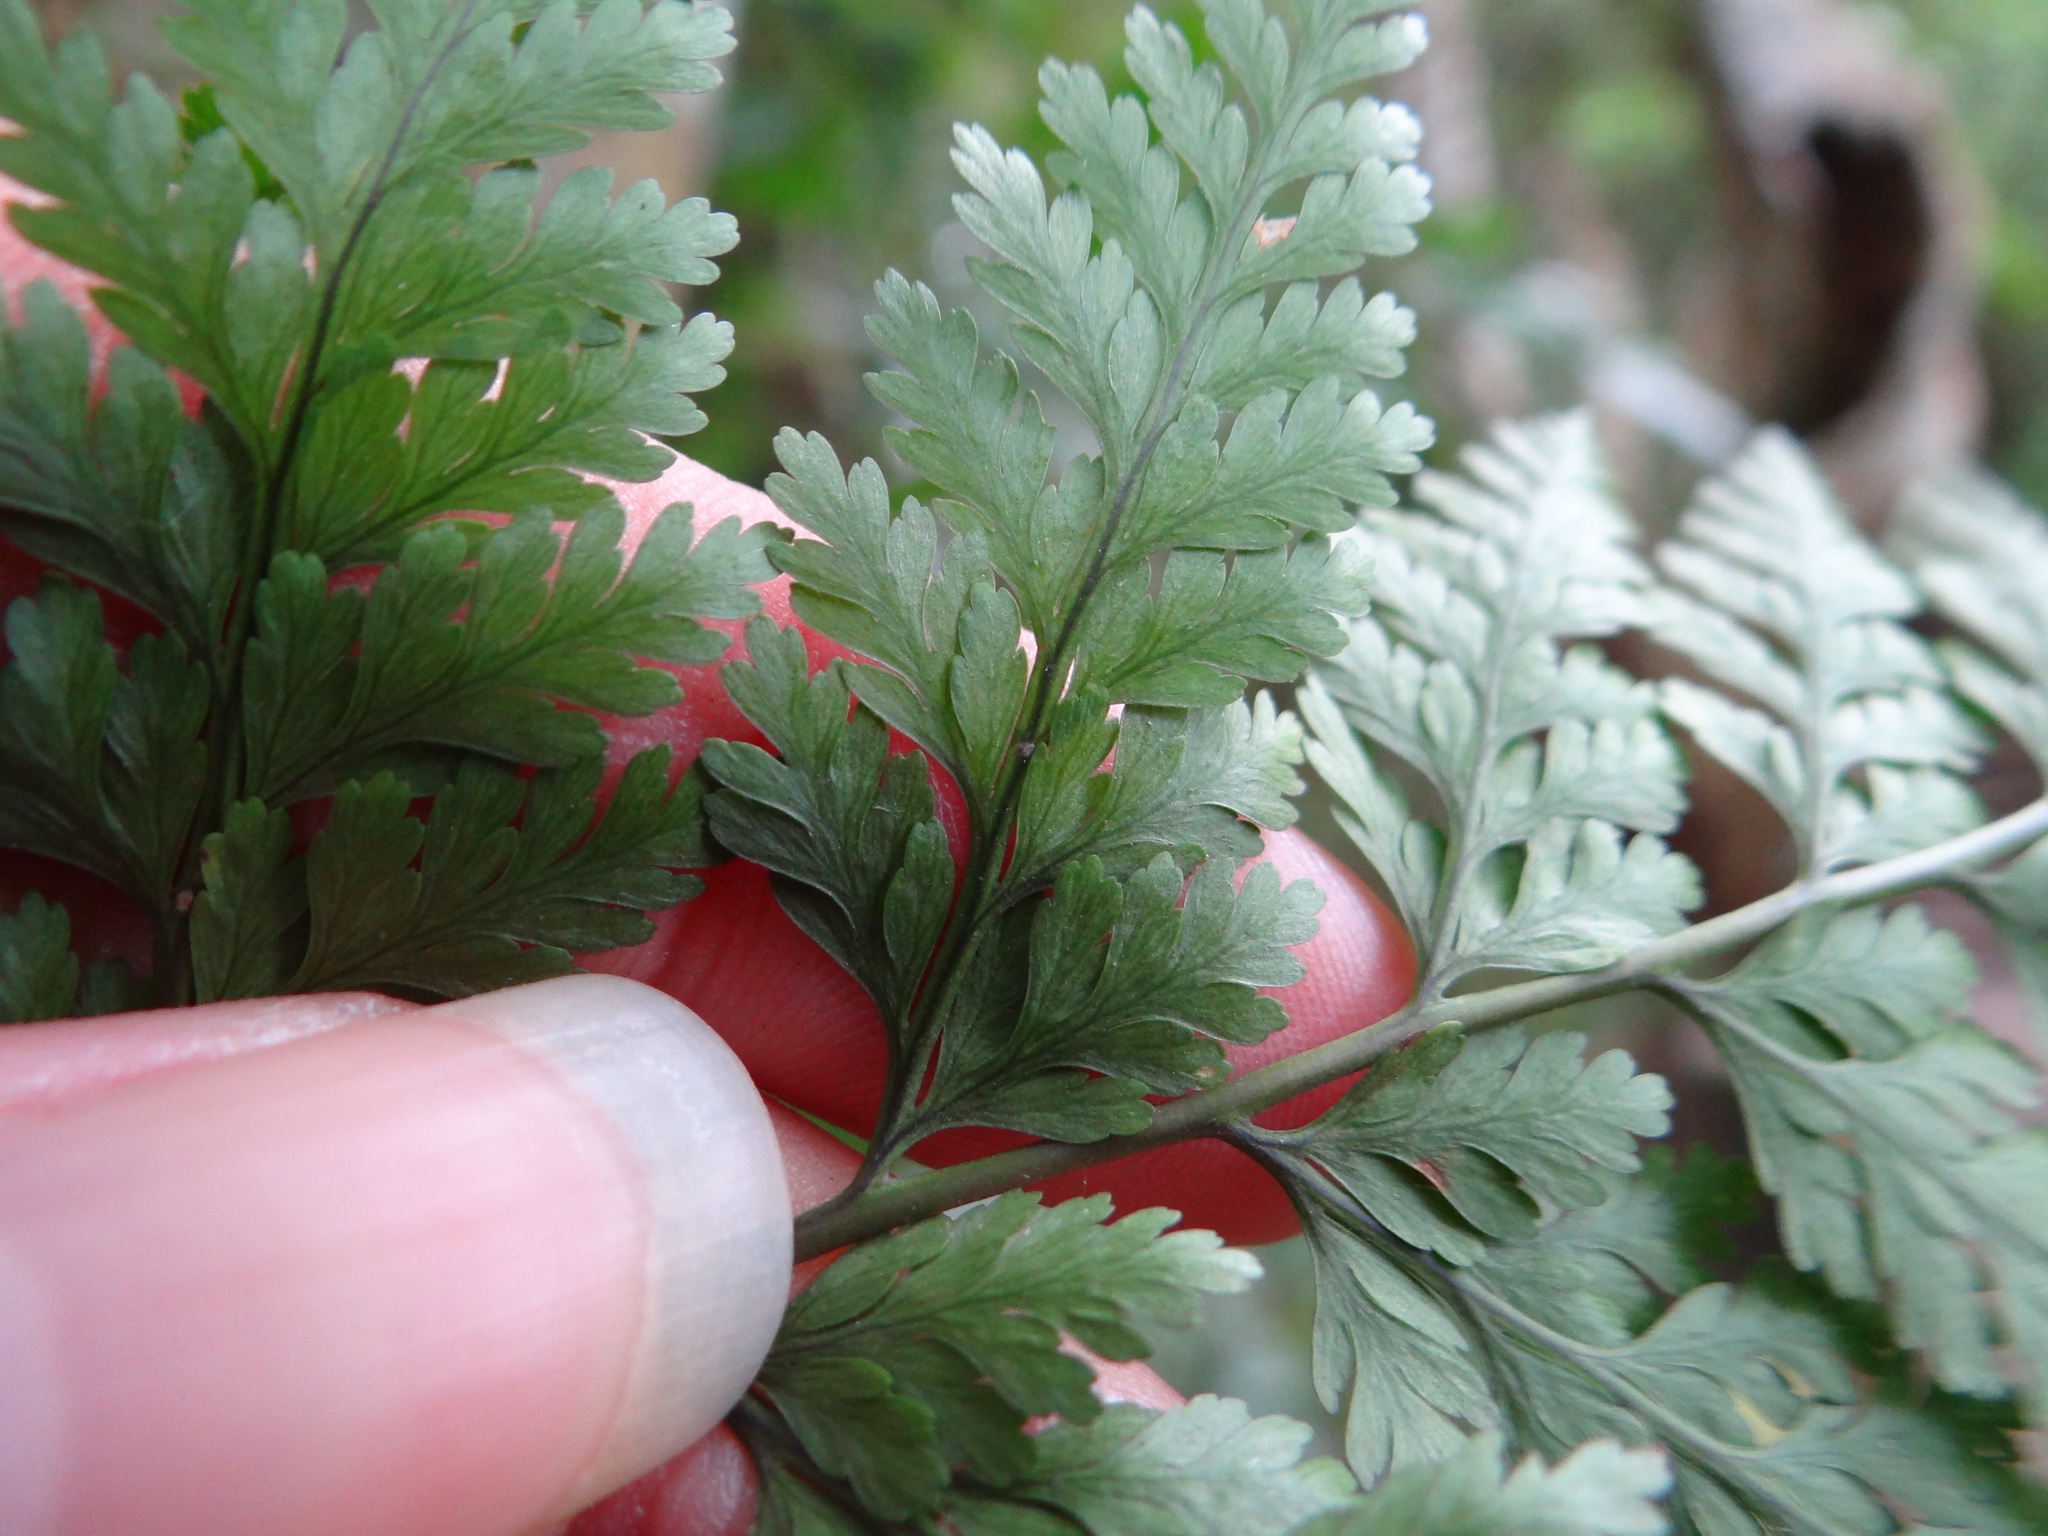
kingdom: Plantae
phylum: Tracheophyta
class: Polypodiopsida
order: Polypodiales
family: Davalliaceae
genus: Davallia
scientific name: Davallia trichomanoides
